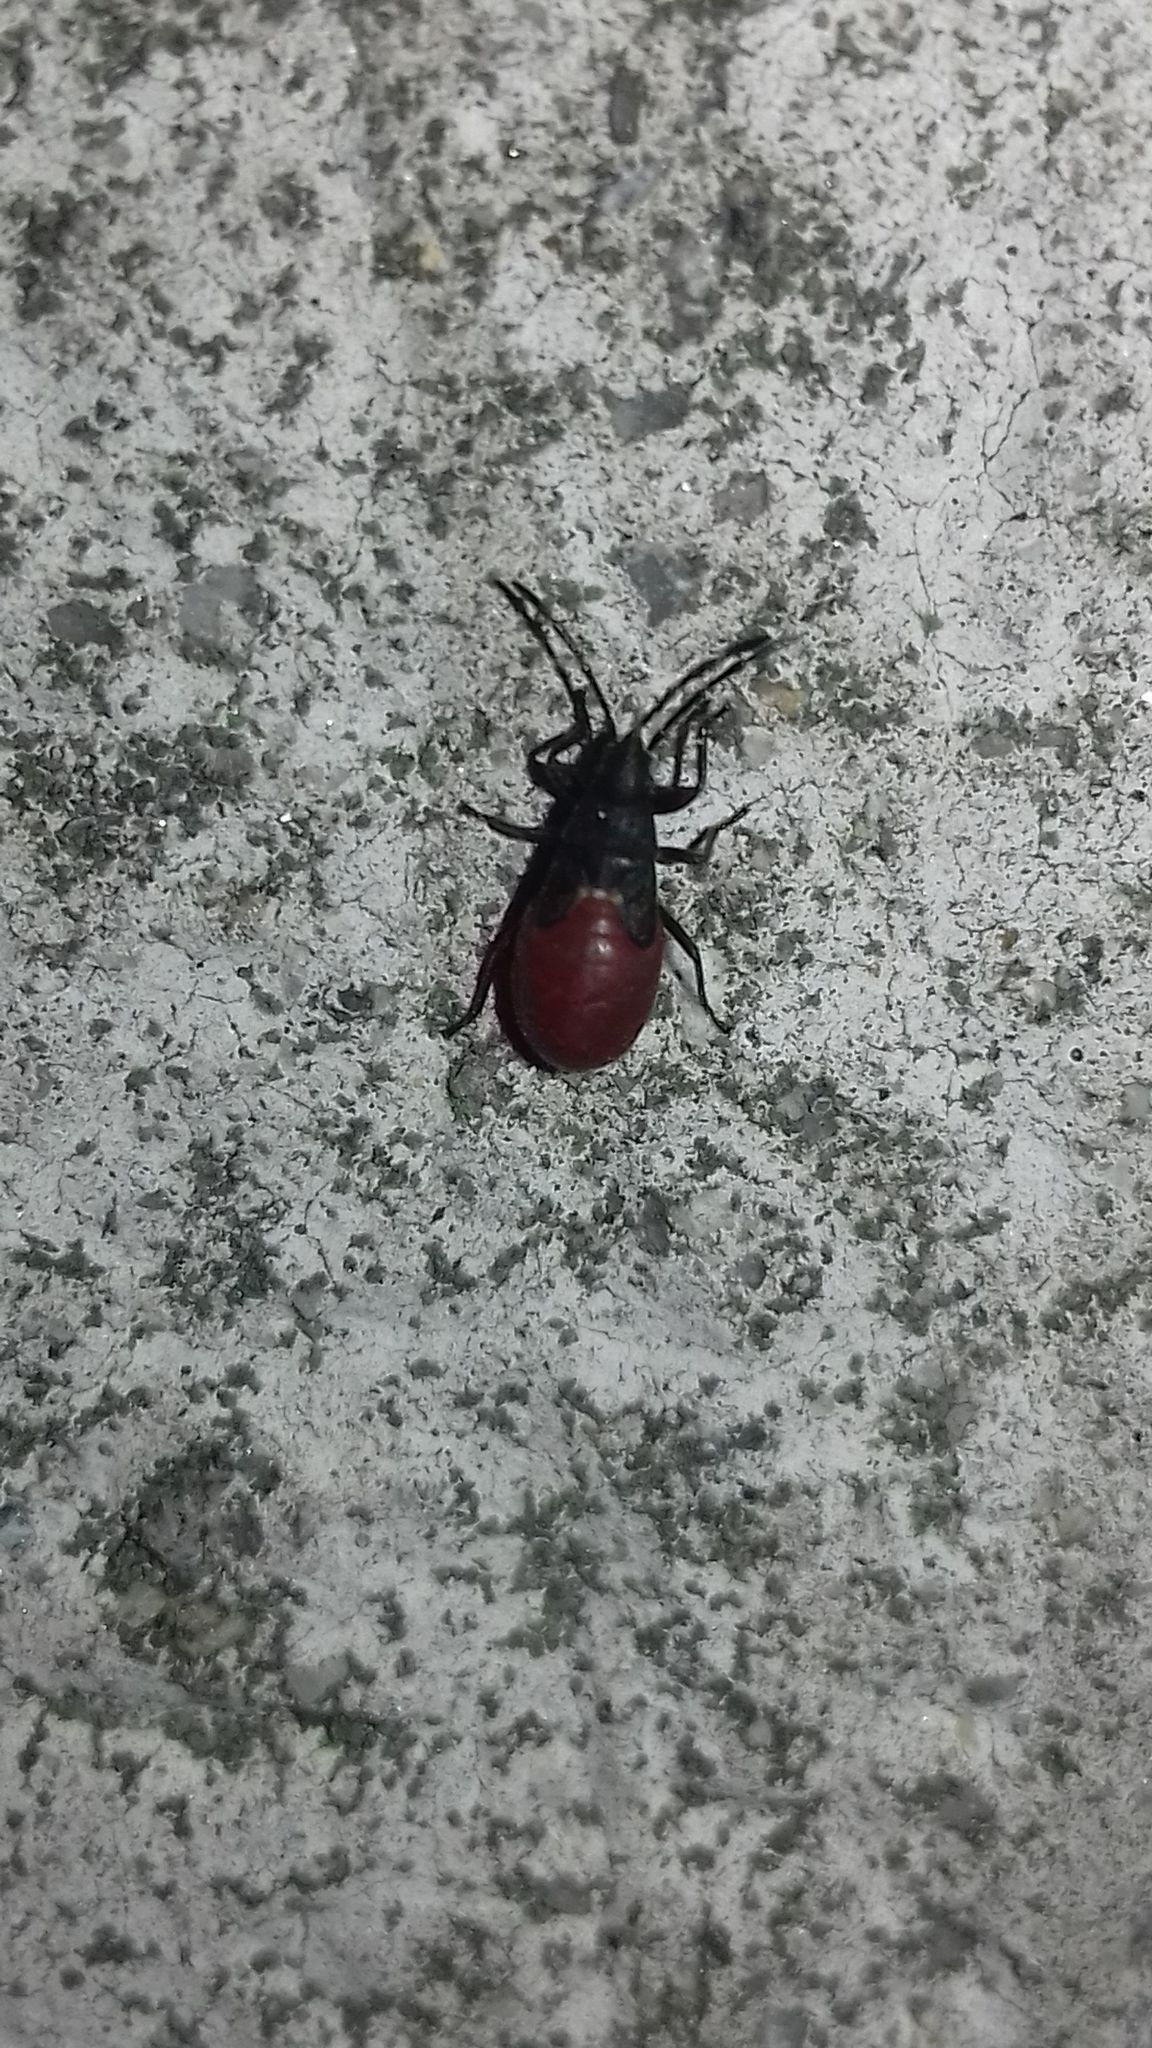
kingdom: Animalia
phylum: Arthropoda
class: Insecta
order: Hemiptera
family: Oxycarenidae
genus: Oxycarenus
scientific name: Oxycarenus lavaterae
